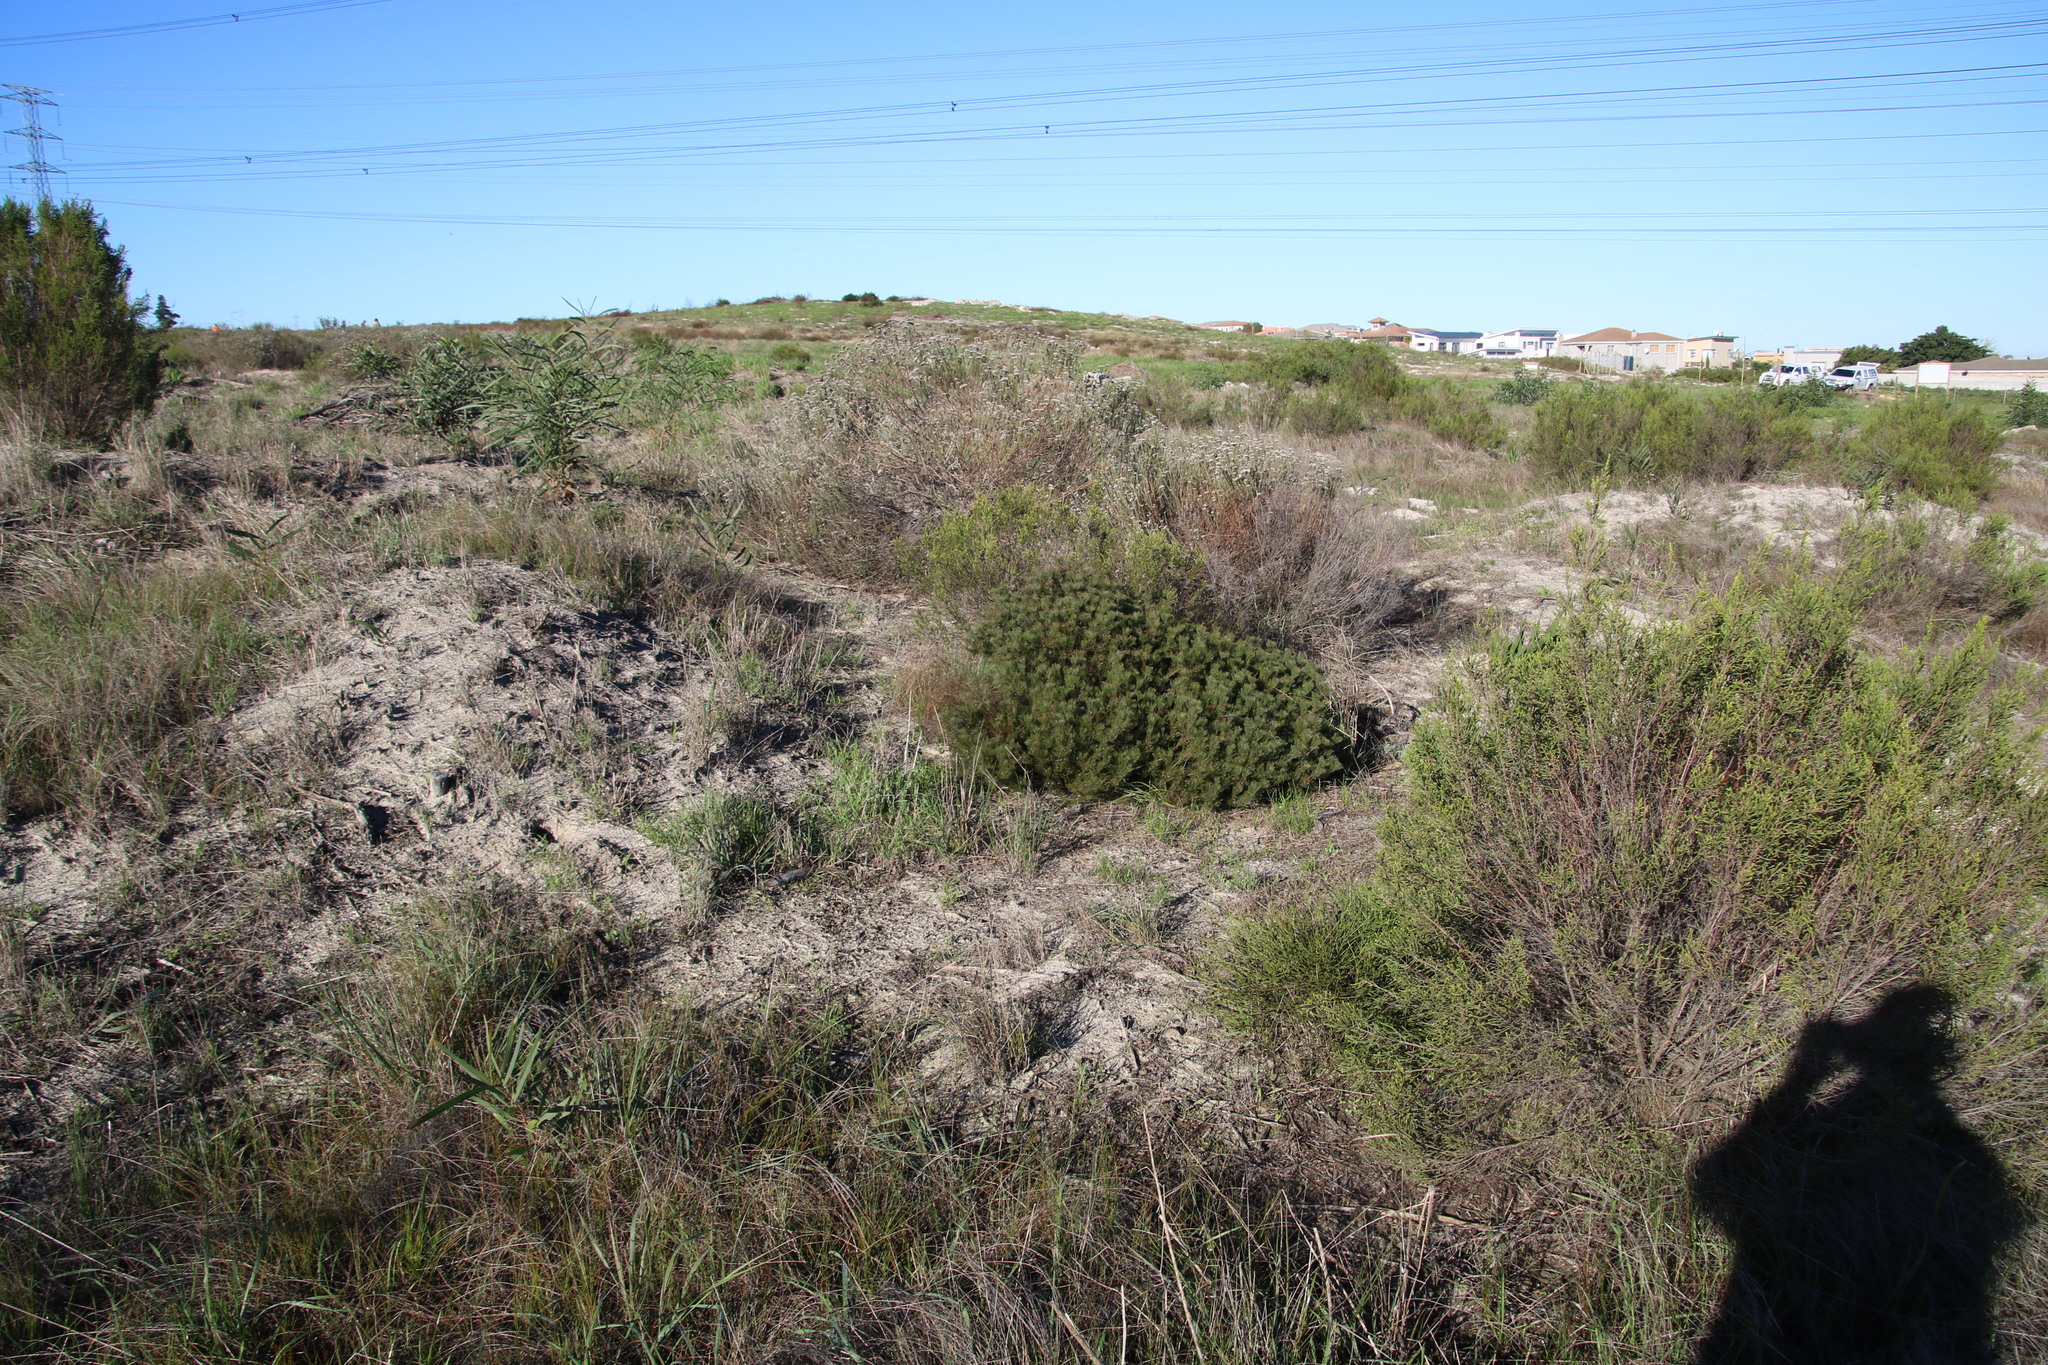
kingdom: Plantae
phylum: Tracheophyta
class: Magnoliopsida
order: Proteales
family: Proteaceae
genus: Serruria
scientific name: Serruria fasciflora
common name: Common pin spiderhead
